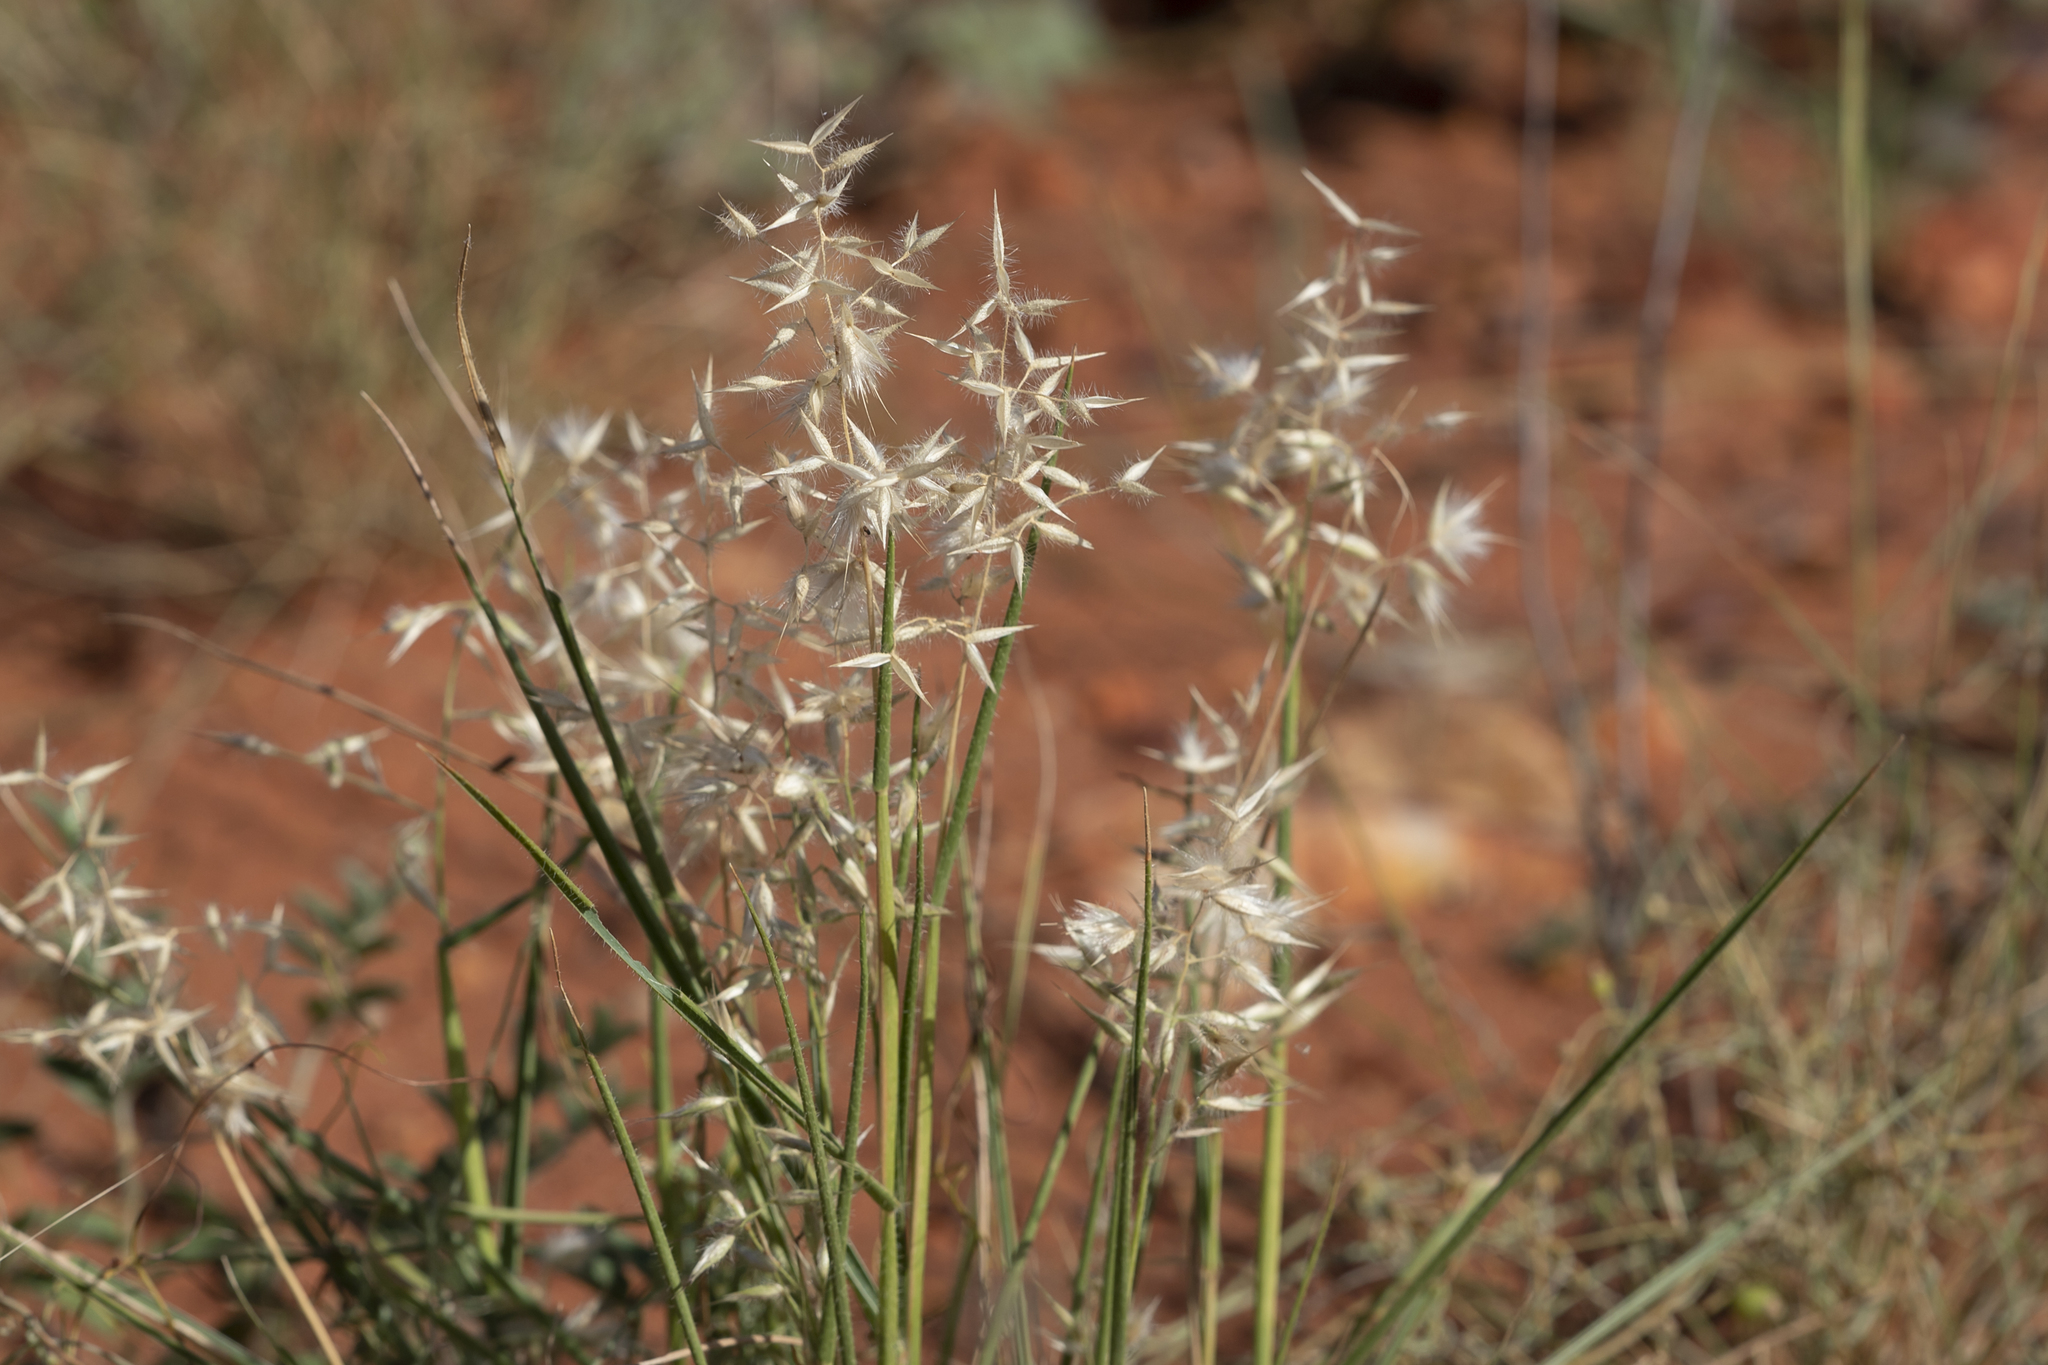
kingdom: Plantae
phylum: Tracheophyta
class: Liliopsida
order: Poales
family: Poaceae
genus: Eriachne
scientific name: Eriachne aristidea
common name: Three-awn wanderrie grass
